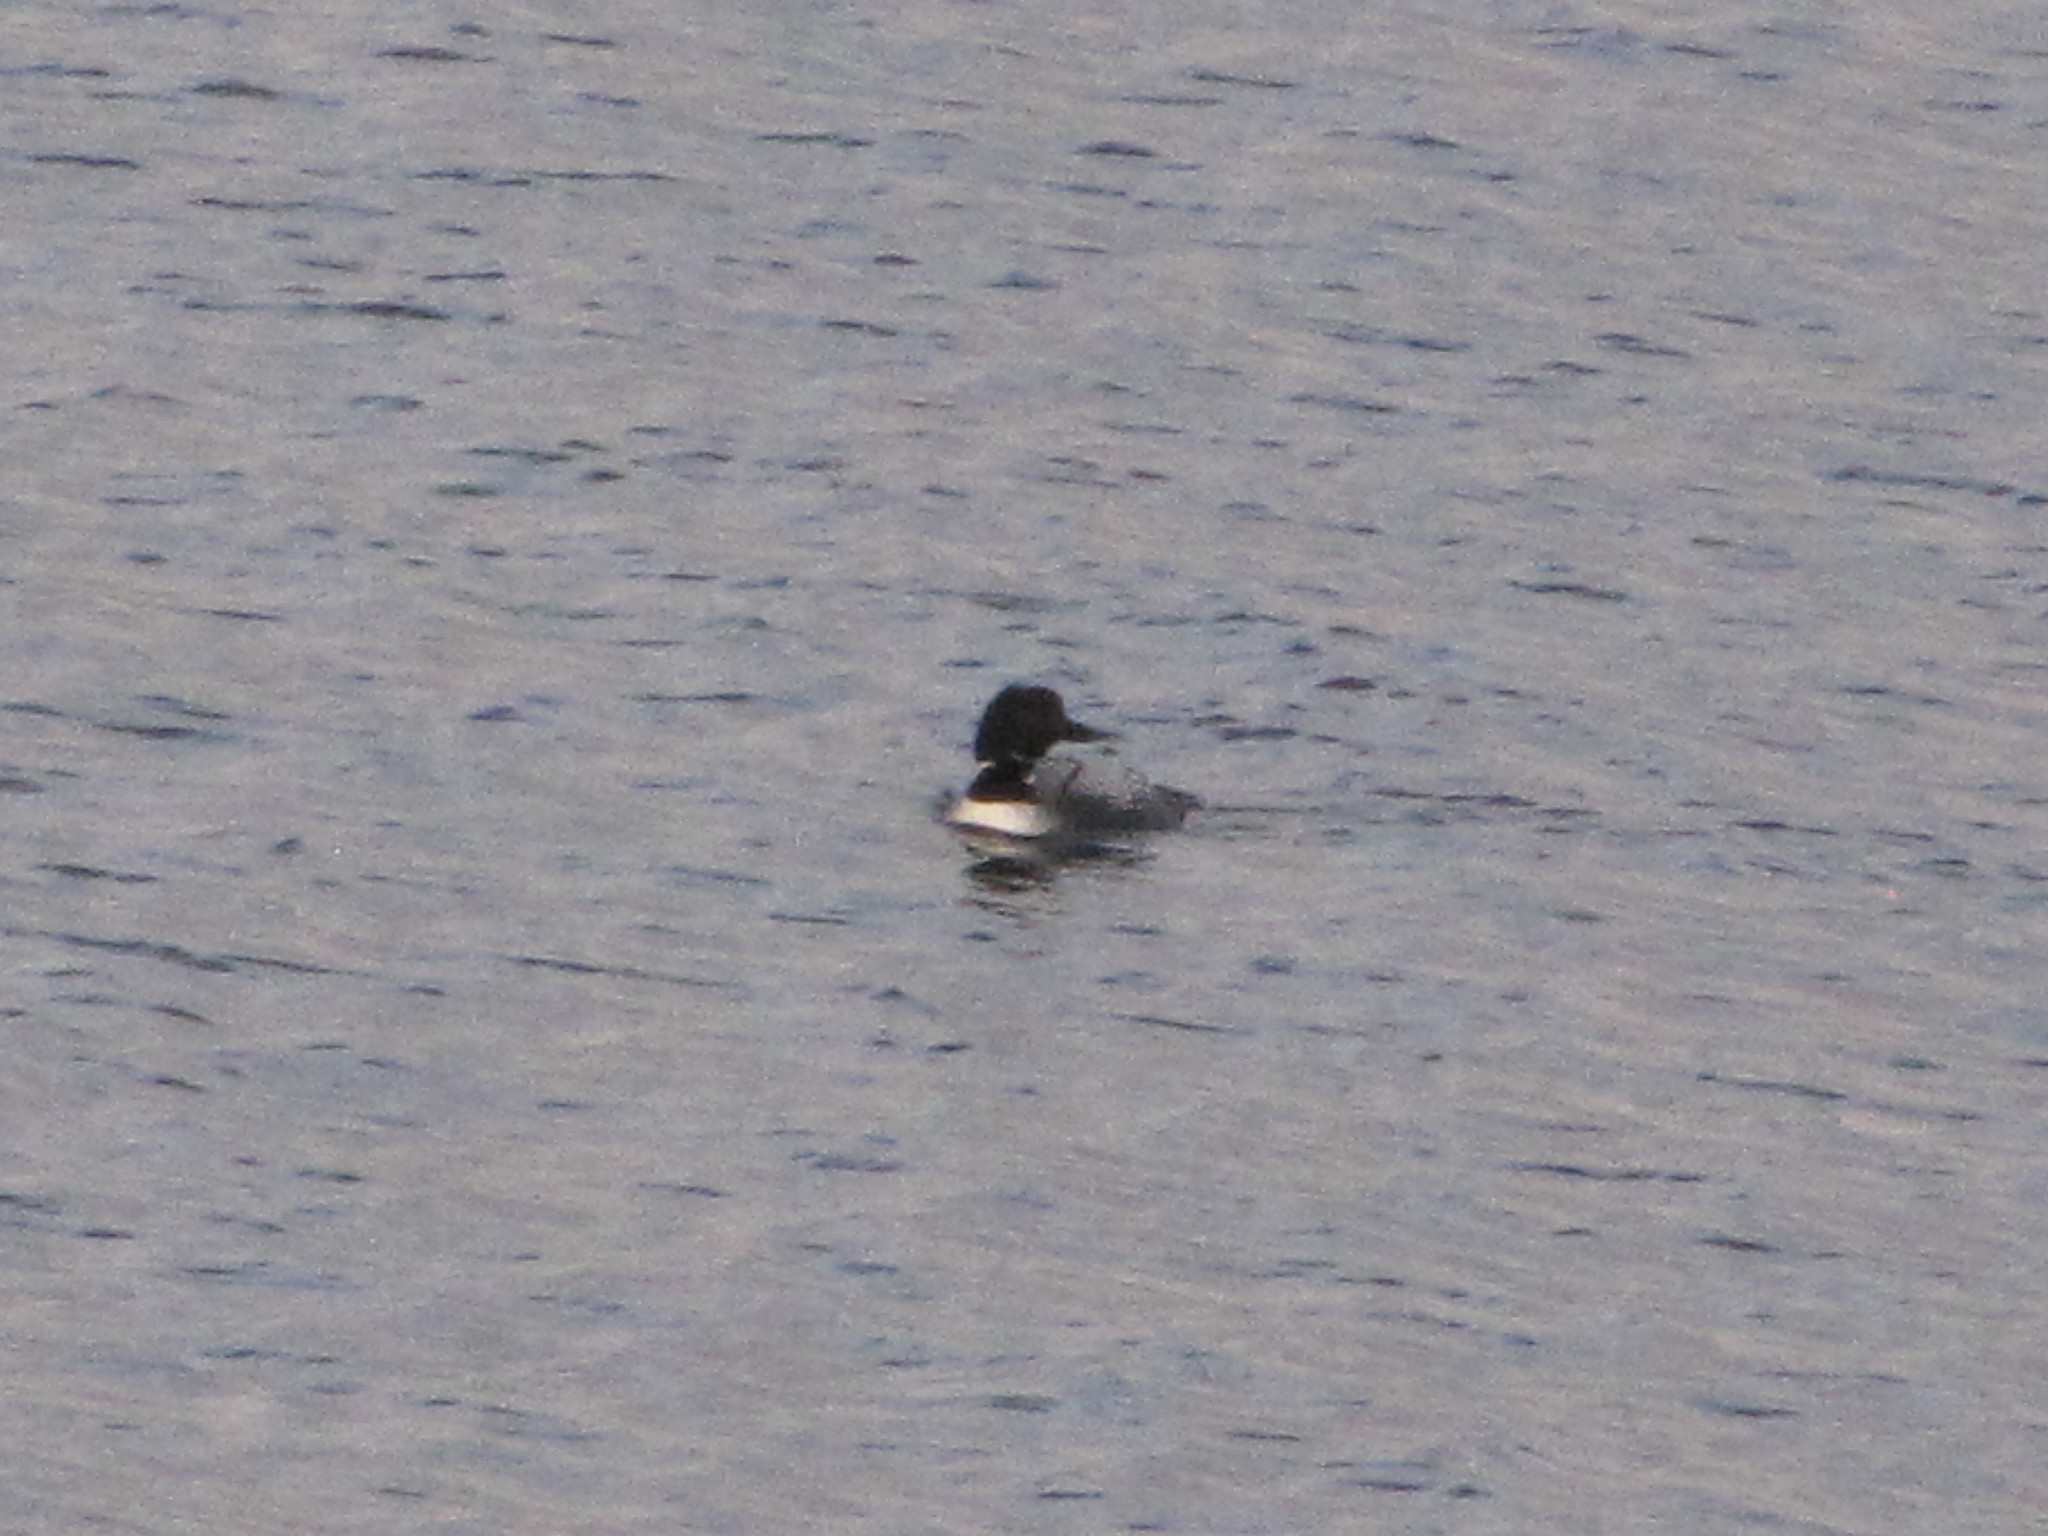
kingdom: Animalia
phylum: Chordata
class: Aves
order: Gaviiformes
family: Gaviidae
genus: Gavia
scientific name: Gavia immer
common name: Common loon
